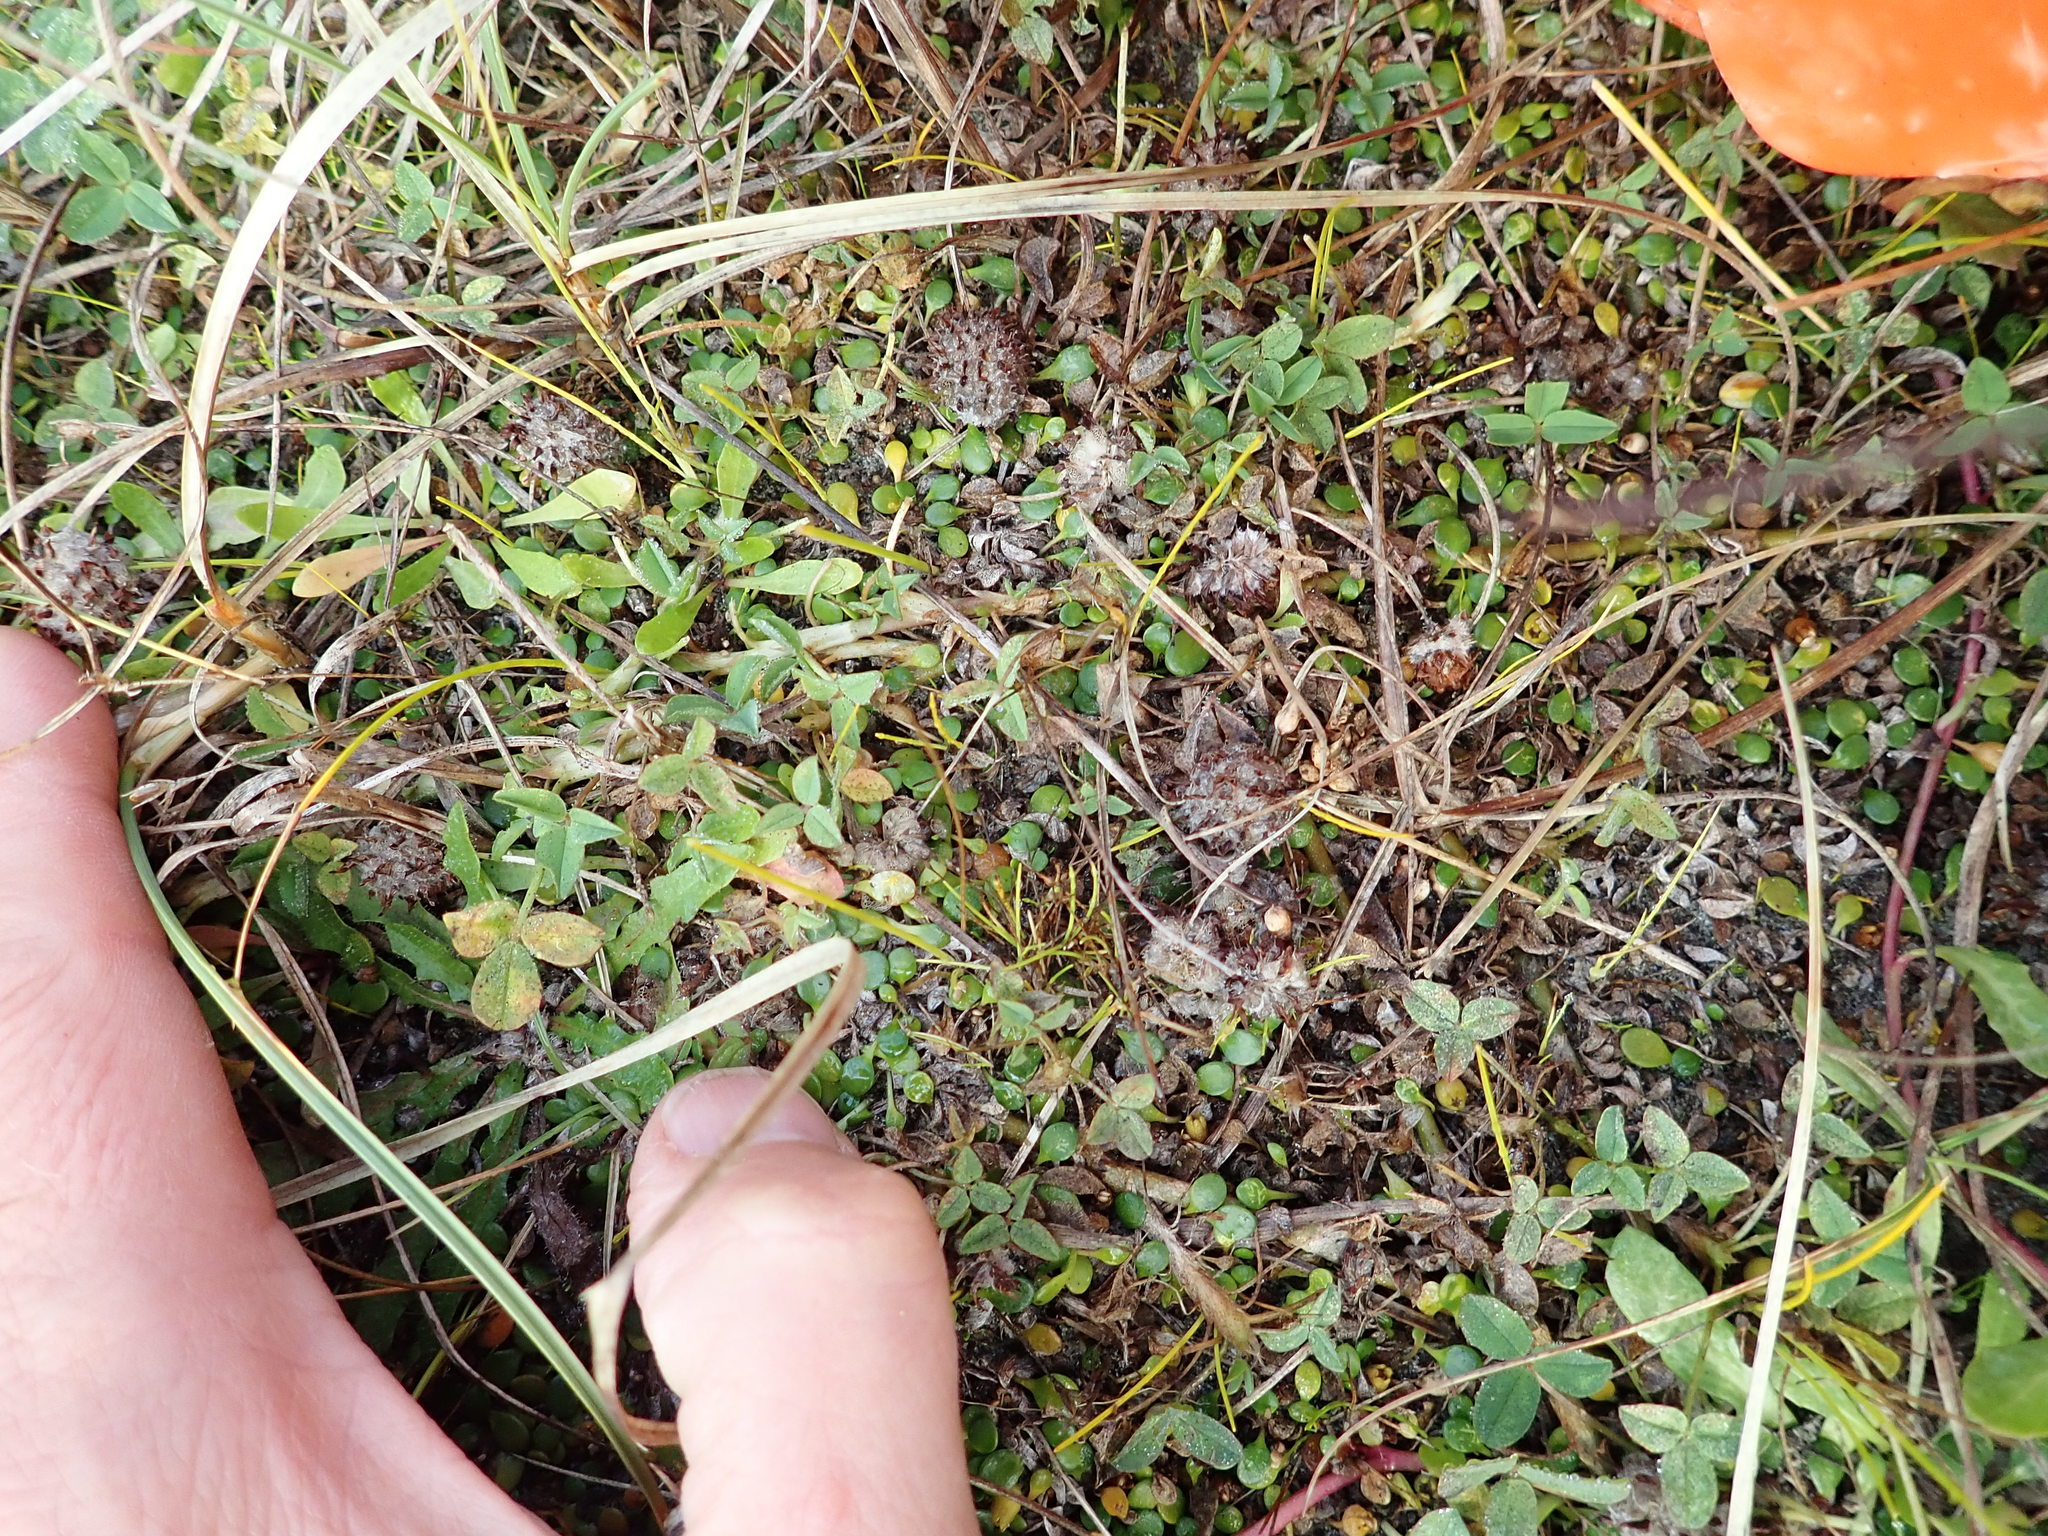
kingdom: Plantae
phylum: Tracheophyta
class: Magnoliopsida
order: Fabales
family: Fabaceae
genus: Trifolium
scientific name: Trifolium fragiferum
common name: Strawberry clover
